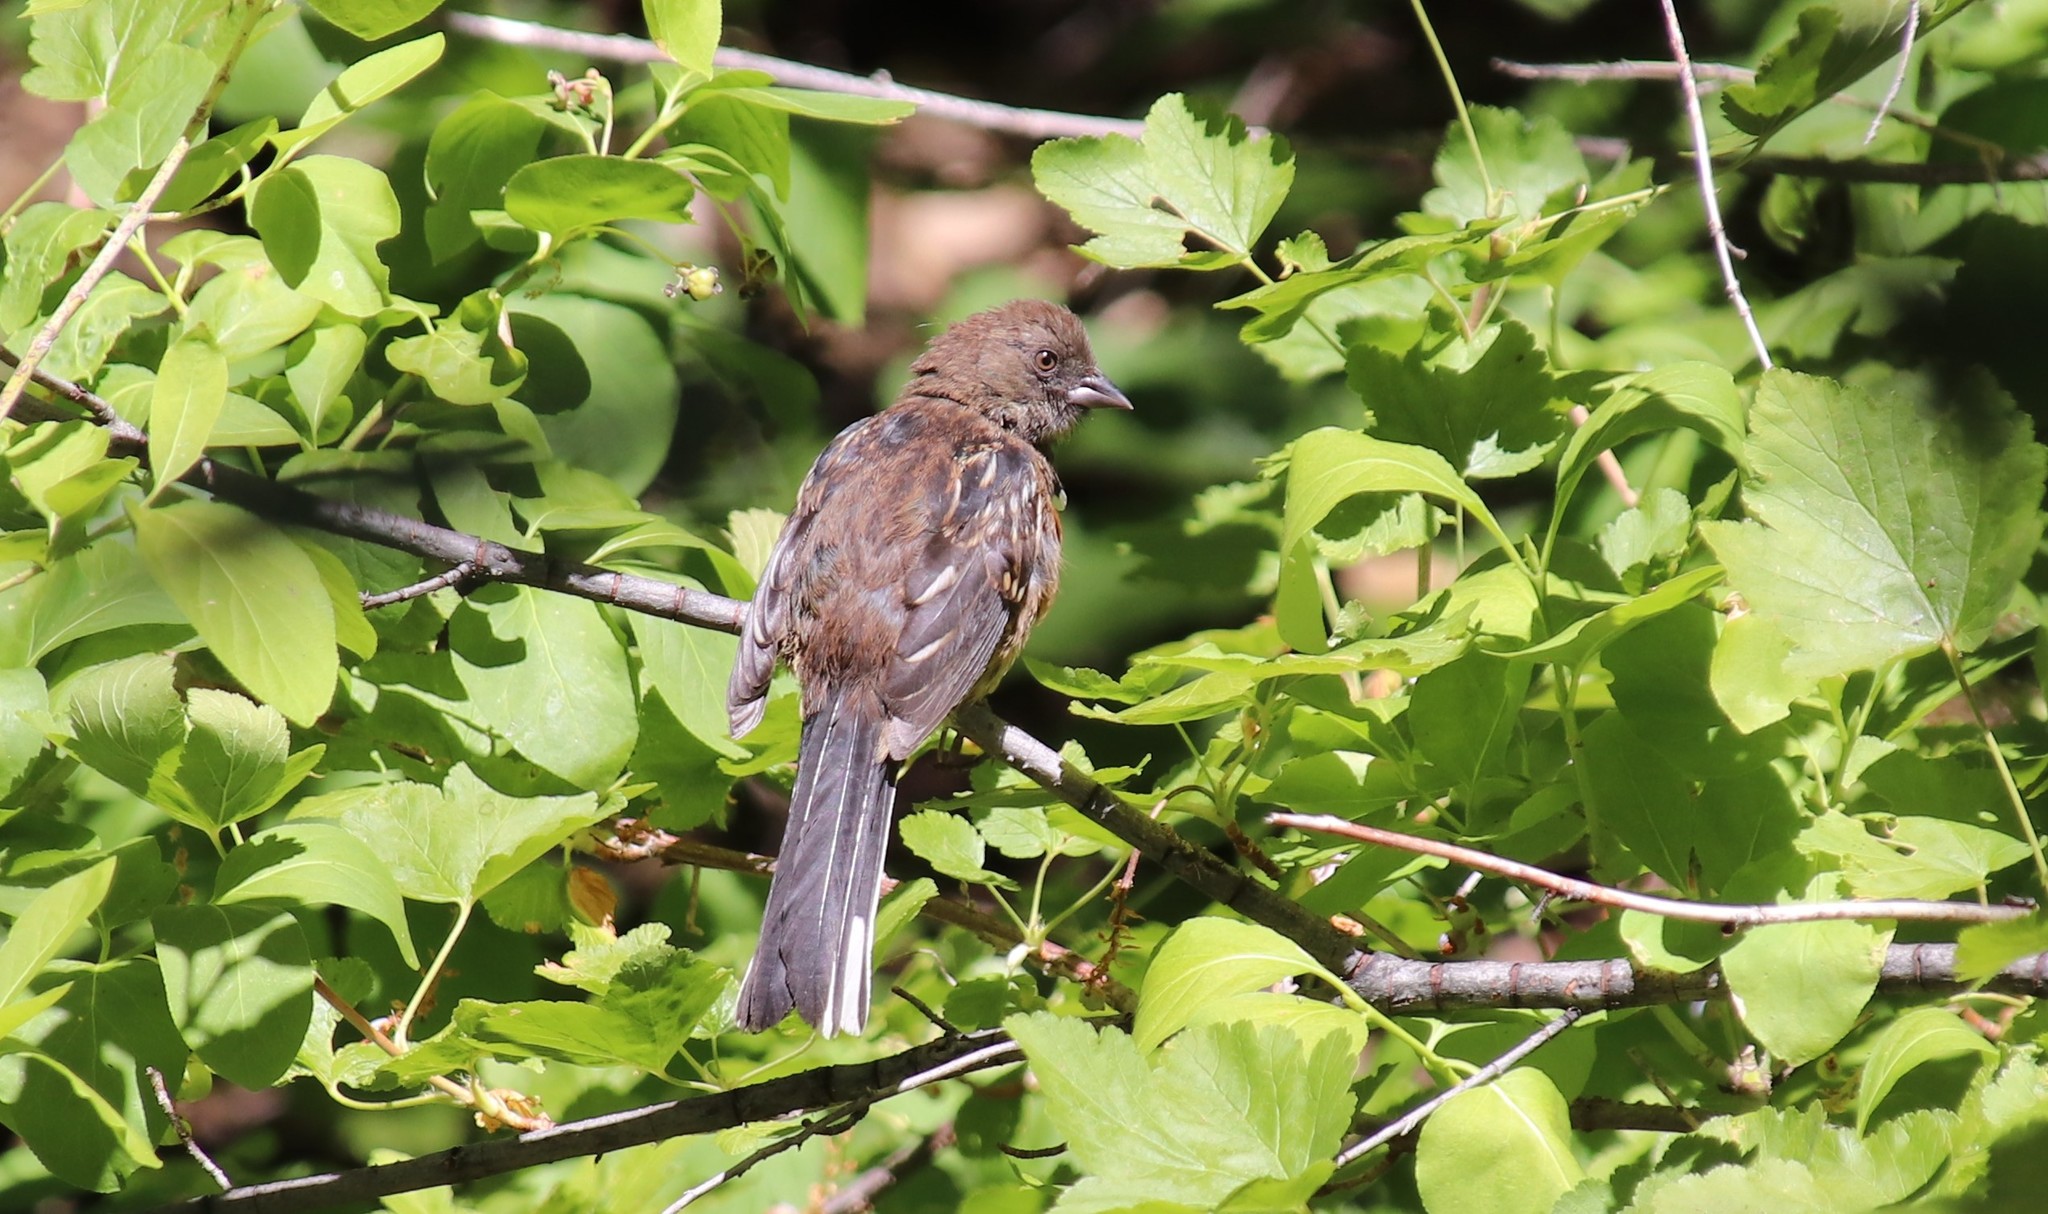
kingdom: Animalia
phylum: Chordata
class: Aves
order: Passeriformes
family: Passerellidae
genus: Pipilo
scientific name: Pipilo maculatus
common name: Spotted towhee
